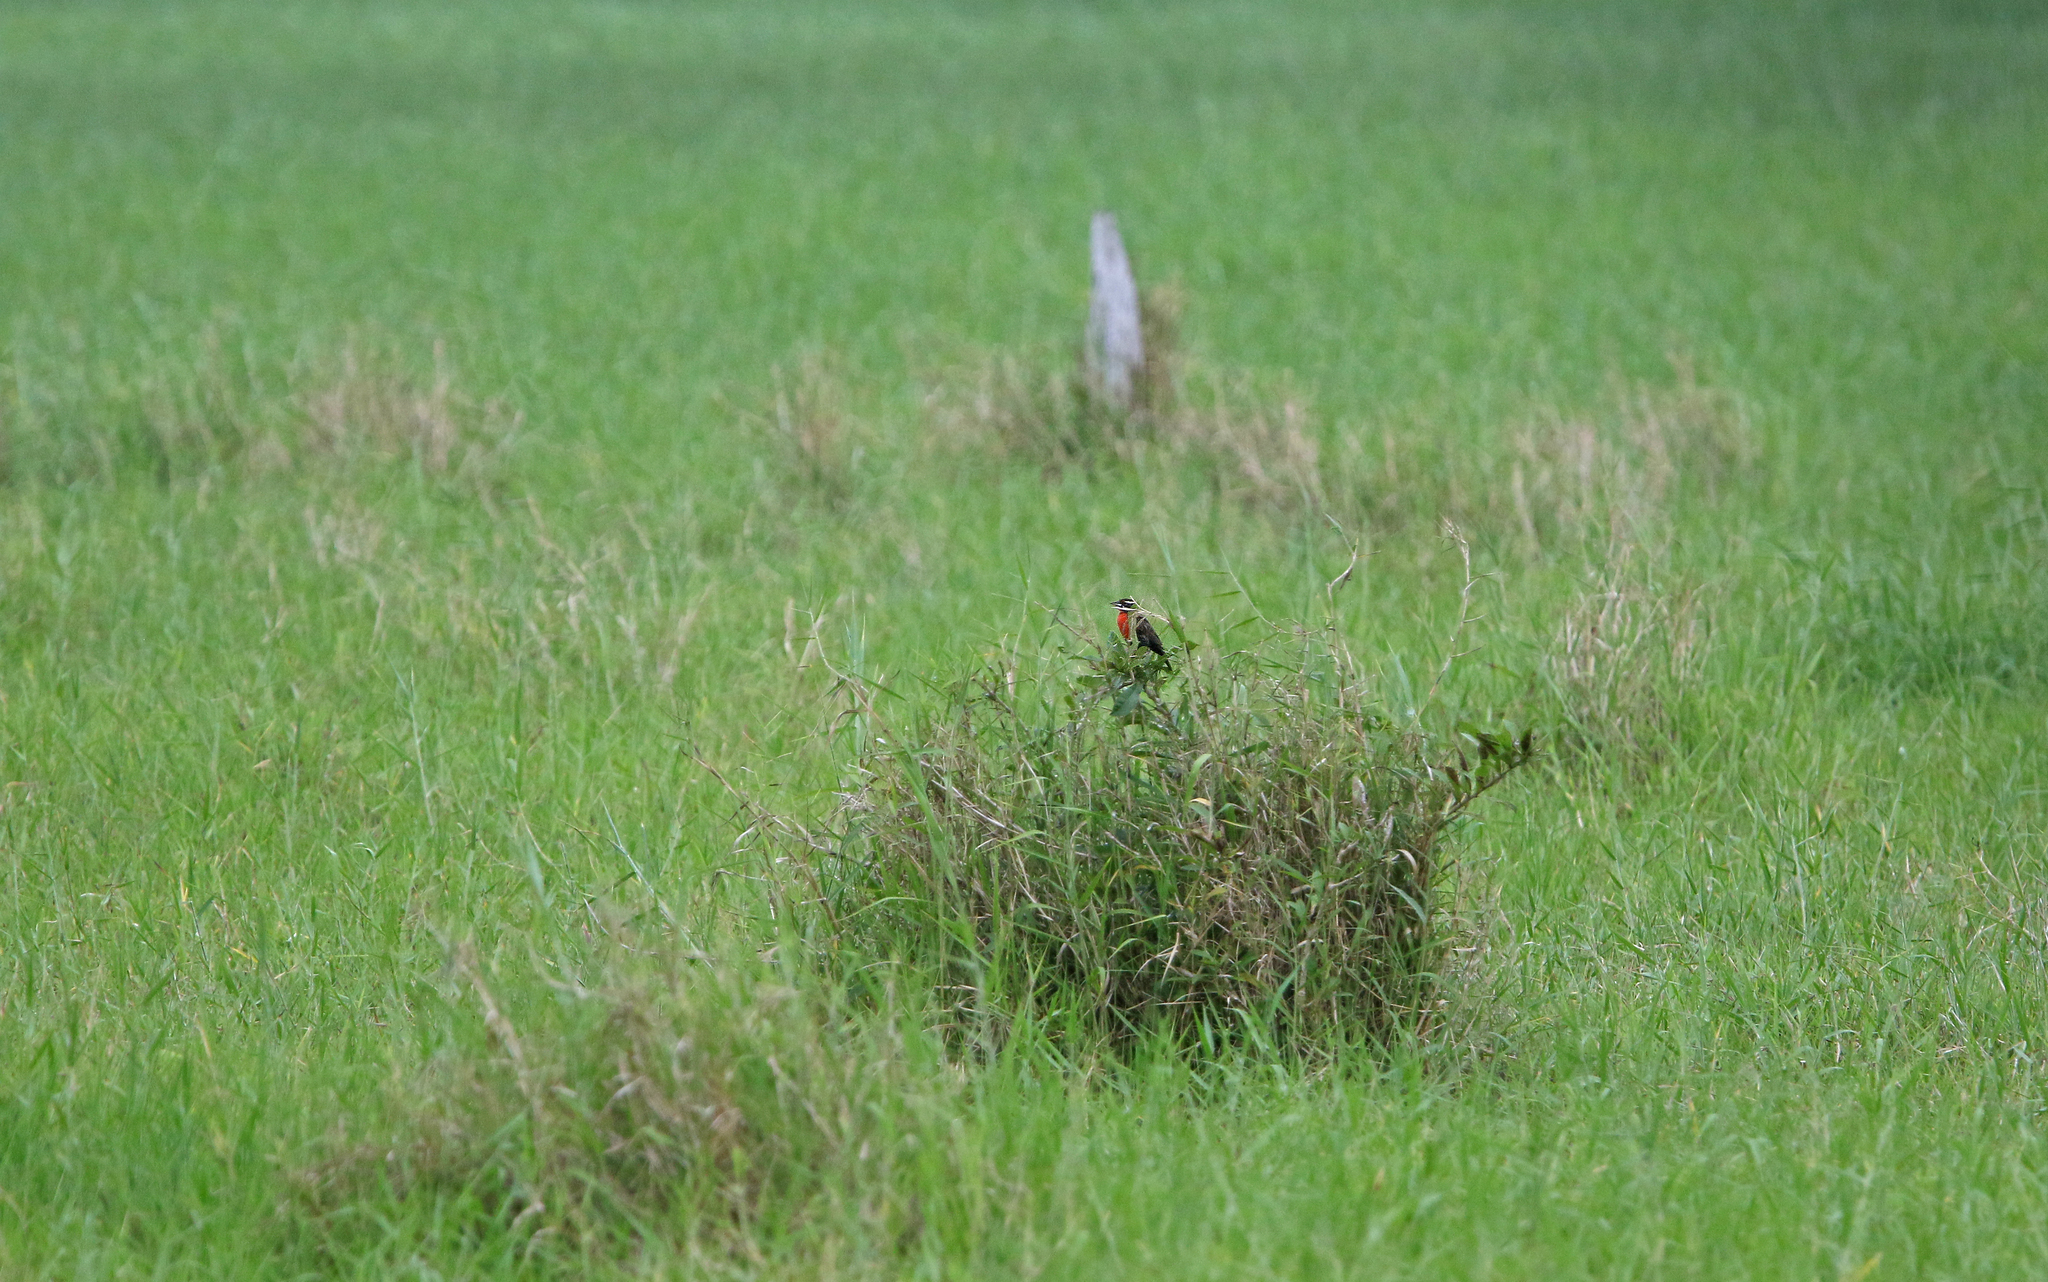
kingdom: Animalia
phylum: Chordata
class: Aves
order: Passeriformes
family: Icteridae
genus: Sturnella
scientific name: Sturnella bellicosa
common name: Peruvian meadowlark
